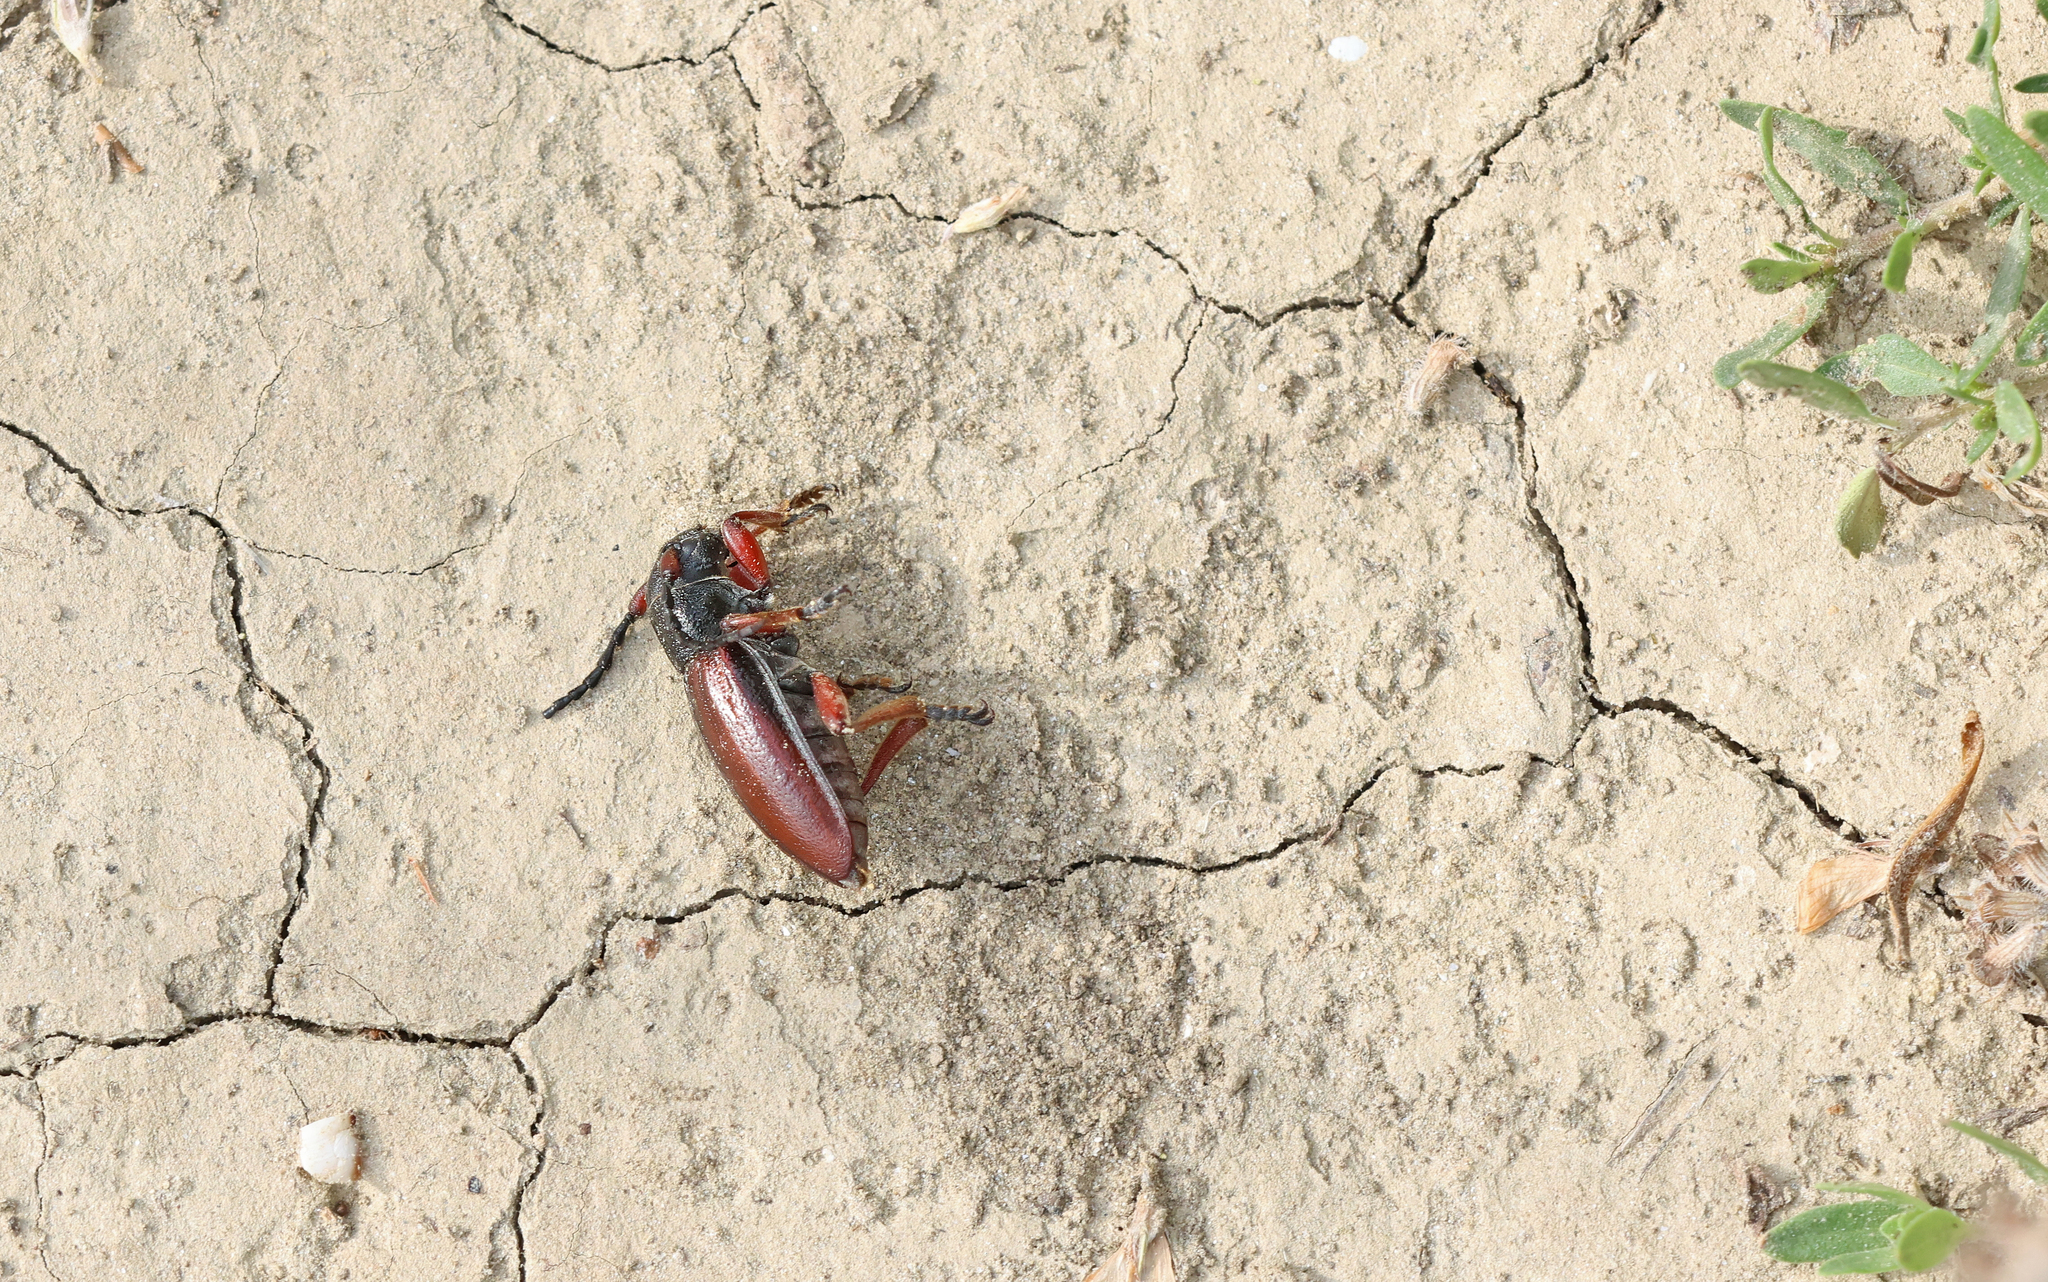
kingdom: Animalia
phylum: Arthropoda
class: Insecta
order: Coleoptera
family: Cerambycidae
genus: Dorcadion
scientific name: Dorcadion fulvum
